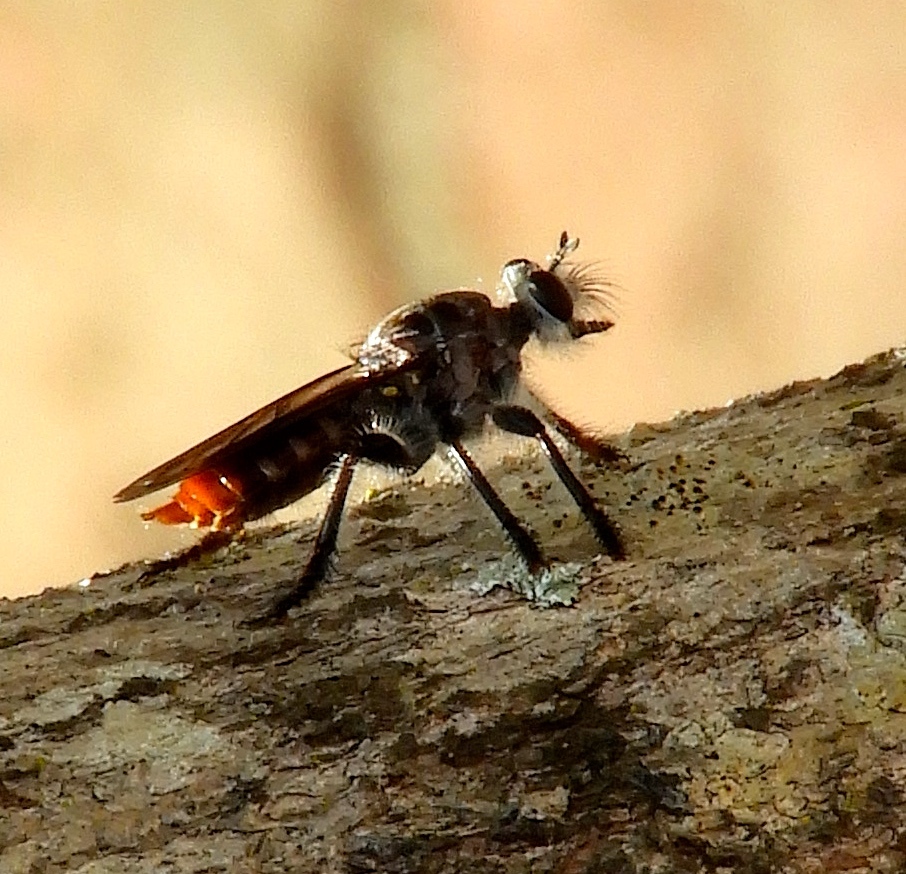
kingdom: Animalia
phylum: Arthropoda
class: Insecta
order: Diptera
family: Asilidae
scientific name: Asilidae
